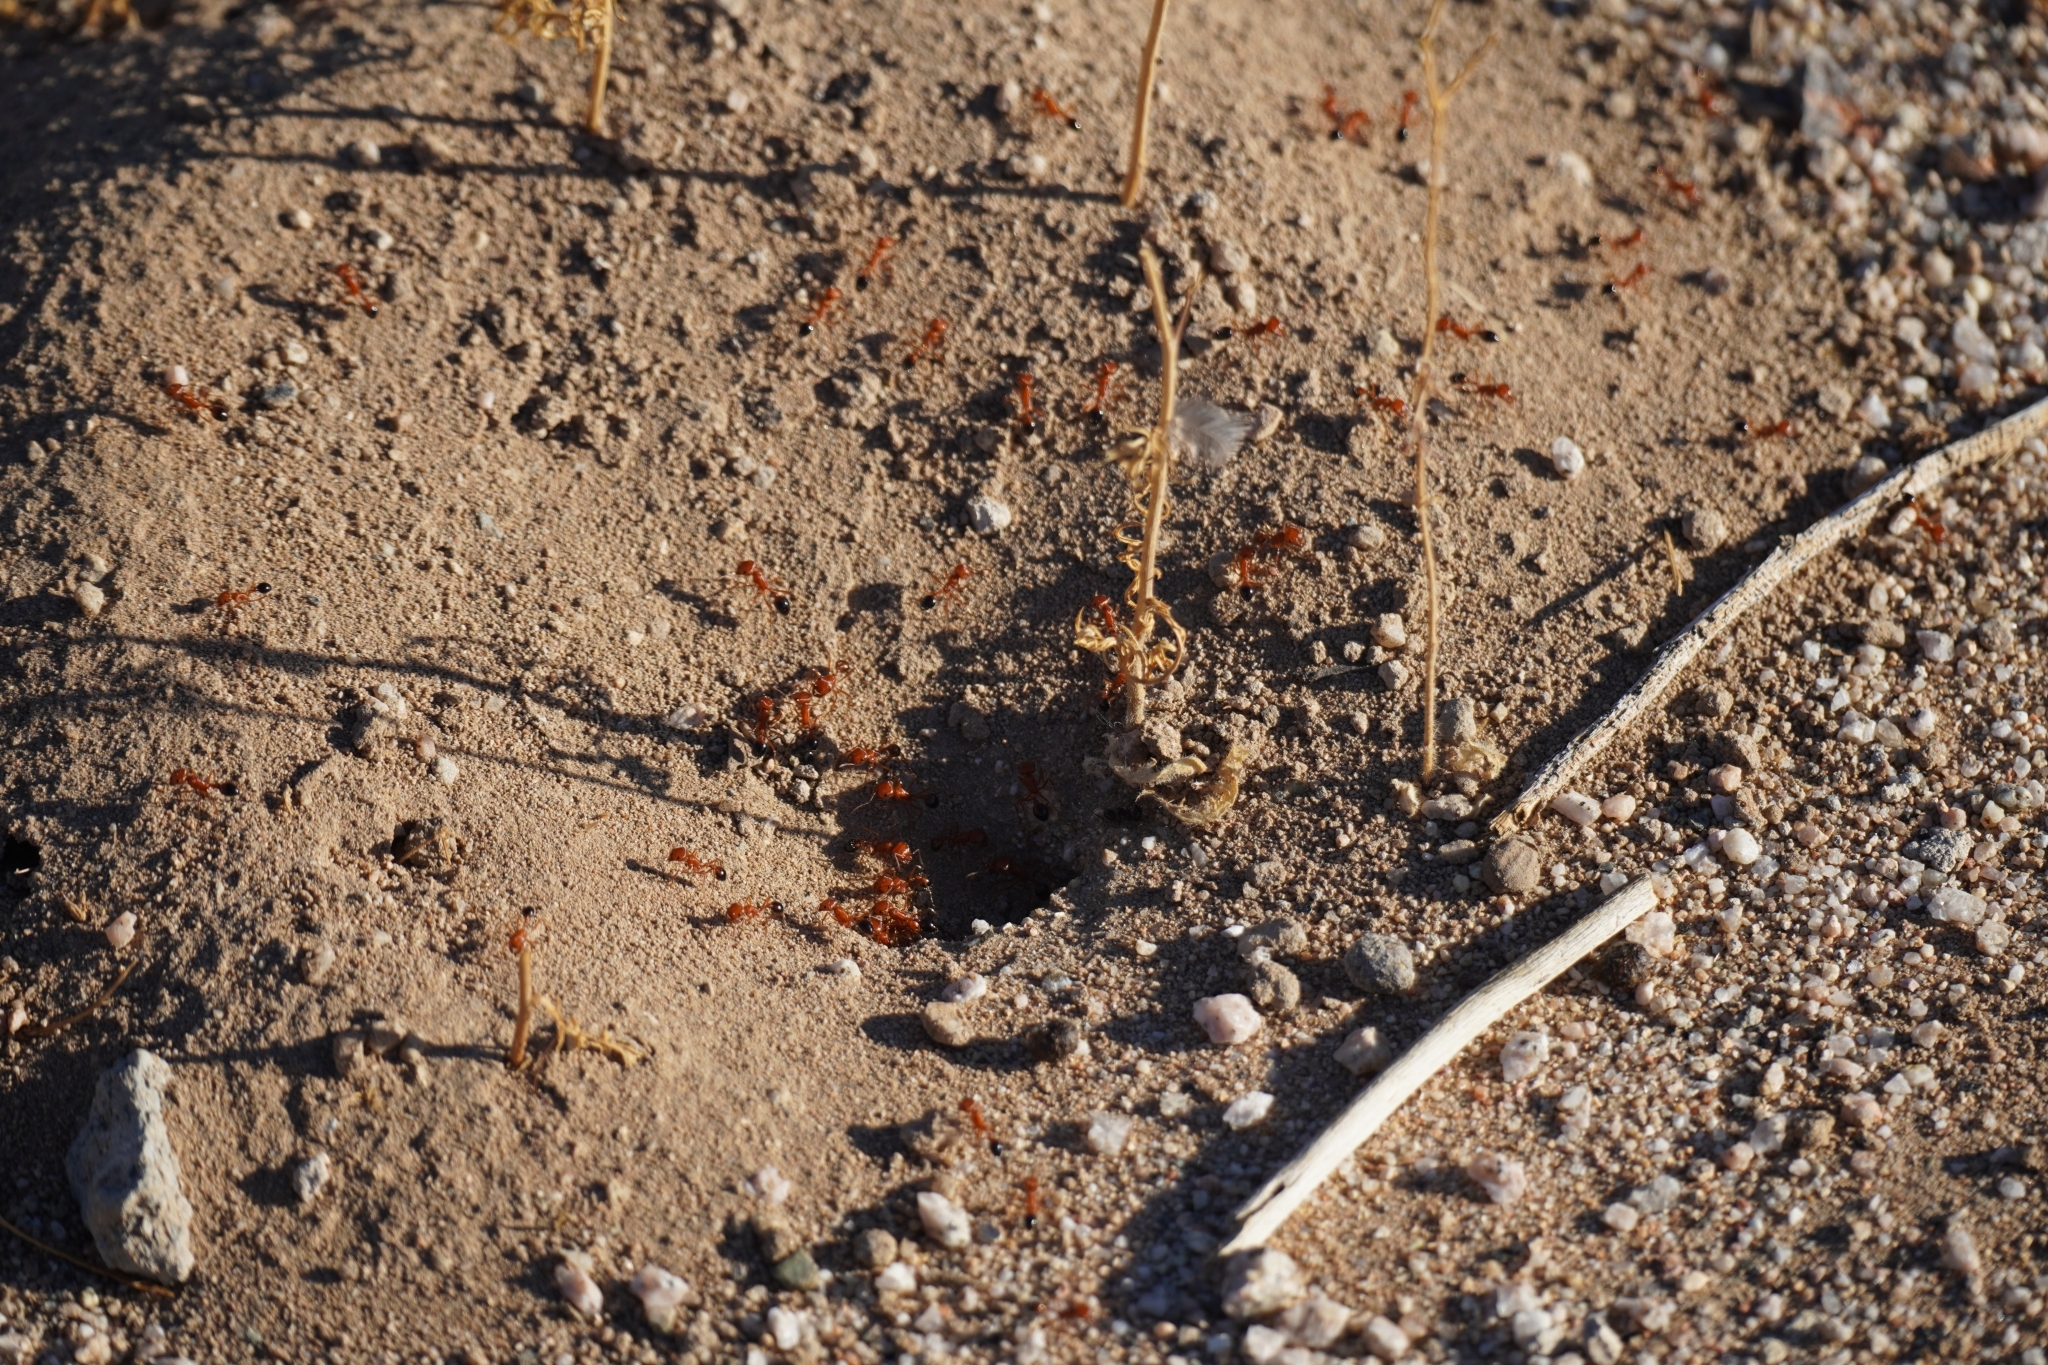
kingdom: Animalia
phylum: Arthropoda
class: Insecta
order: Hymenoptera
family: Formicidae
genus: Pogonomyrmex
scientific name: Pogonomyrmex californicus
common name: California harvester ant
